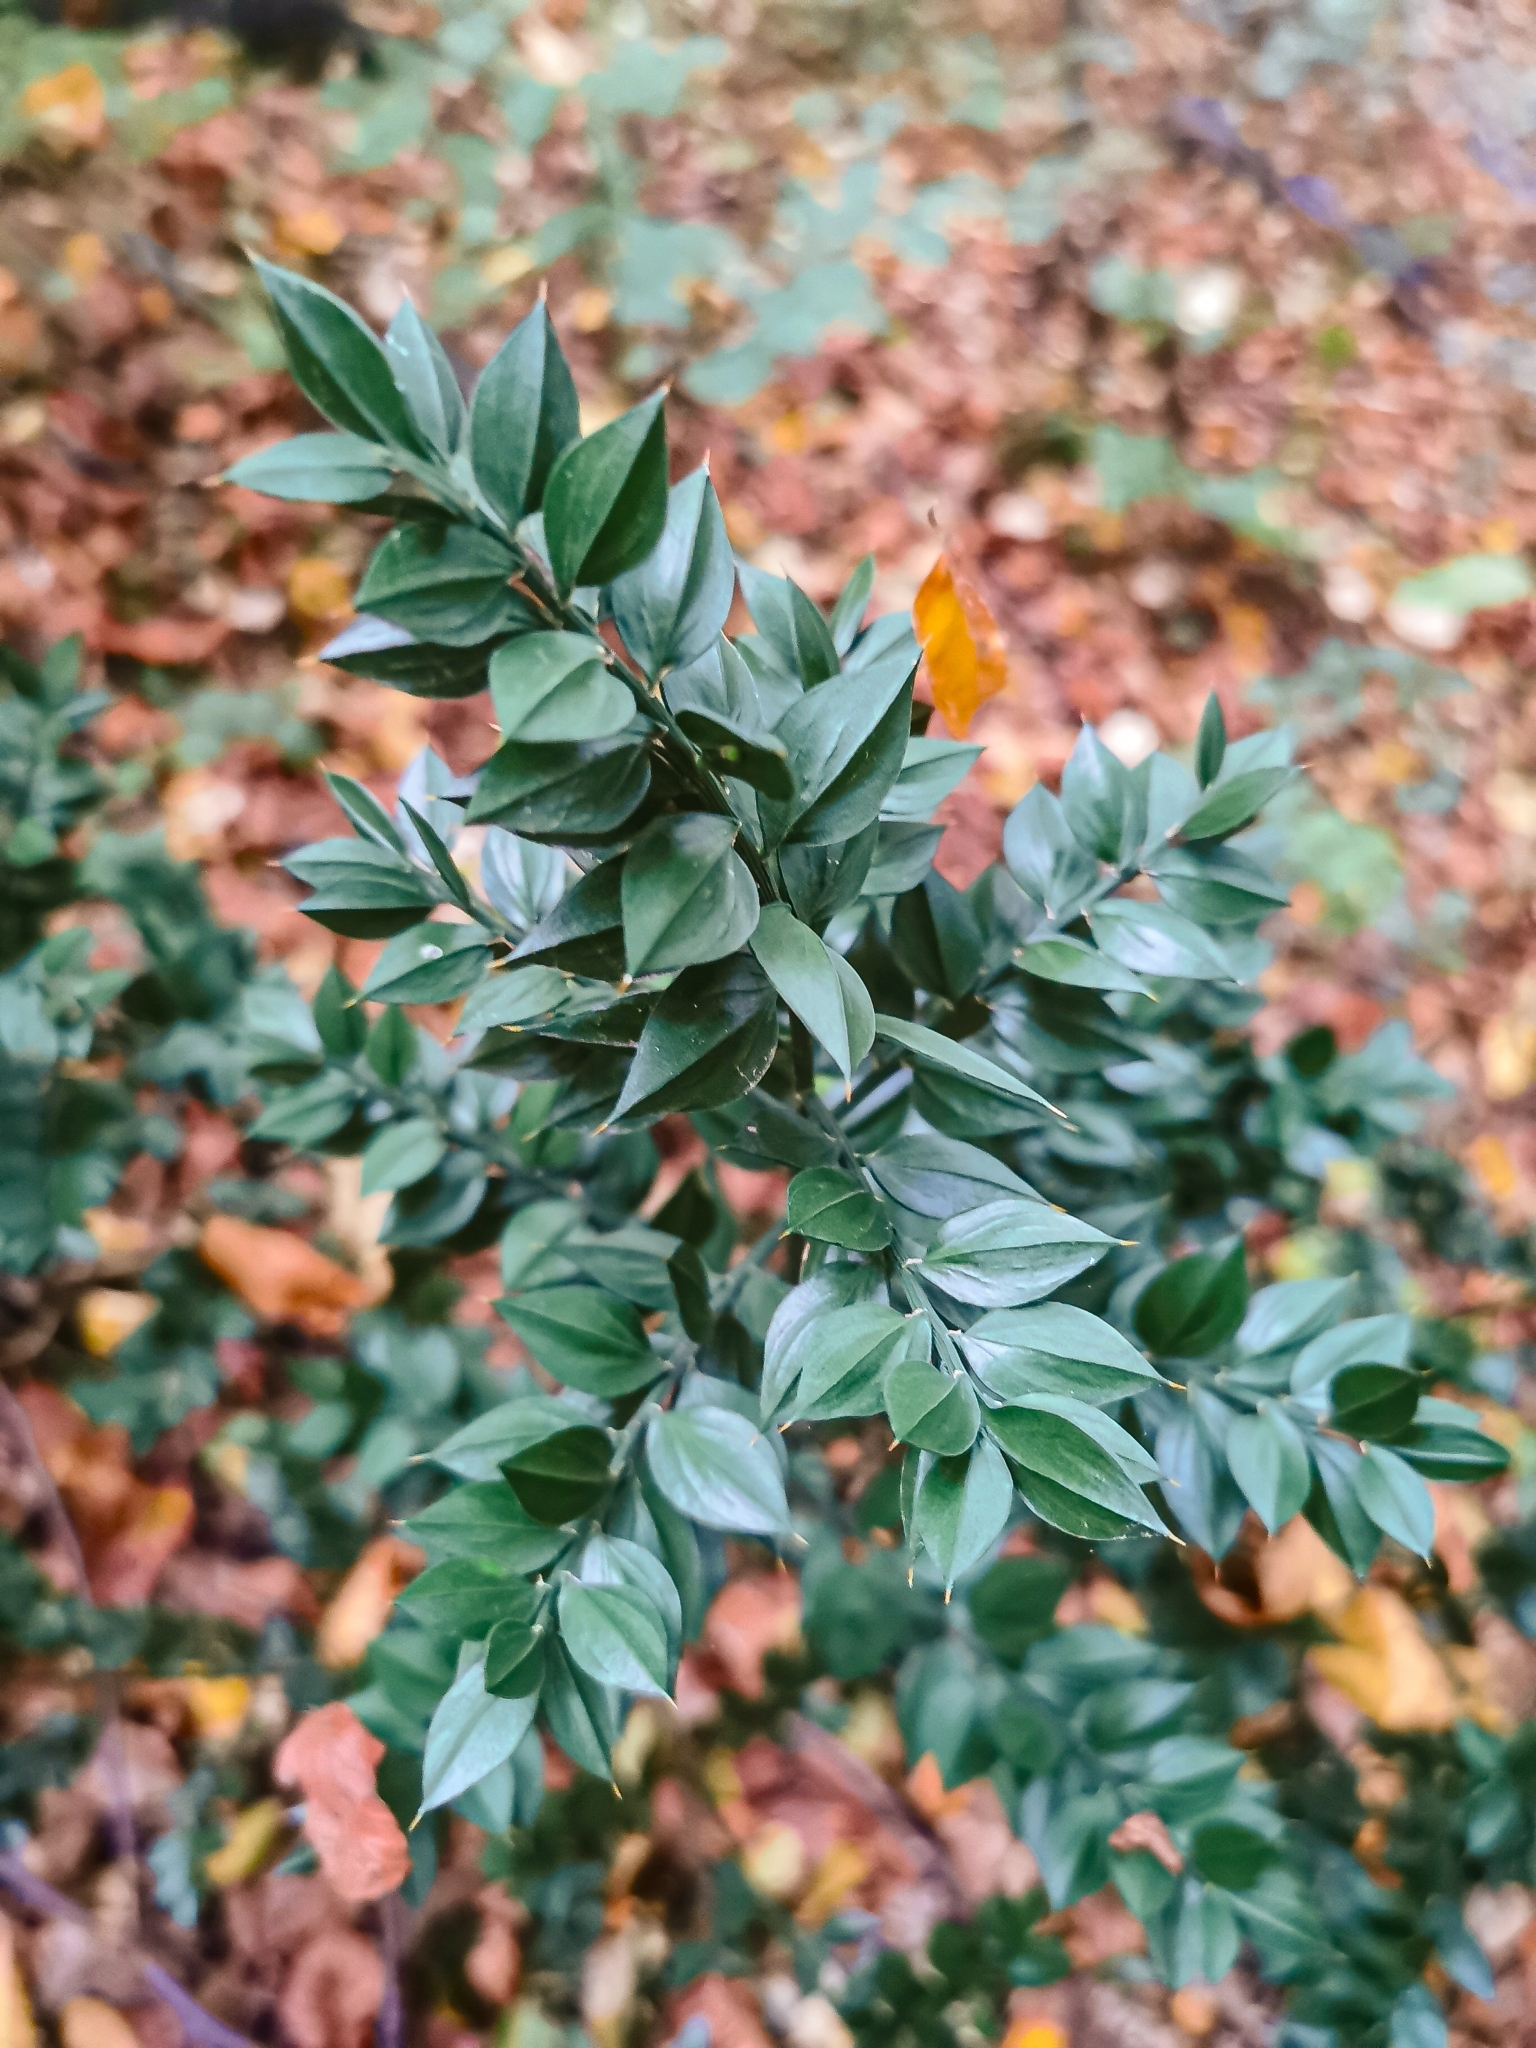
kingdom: Plantae
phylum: Tracheophyta
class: Liliopsida
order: Asparagales
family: Asparagaceae
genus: Ruscus
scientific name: Ruscus aculeatus
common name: Butcher's-broom
